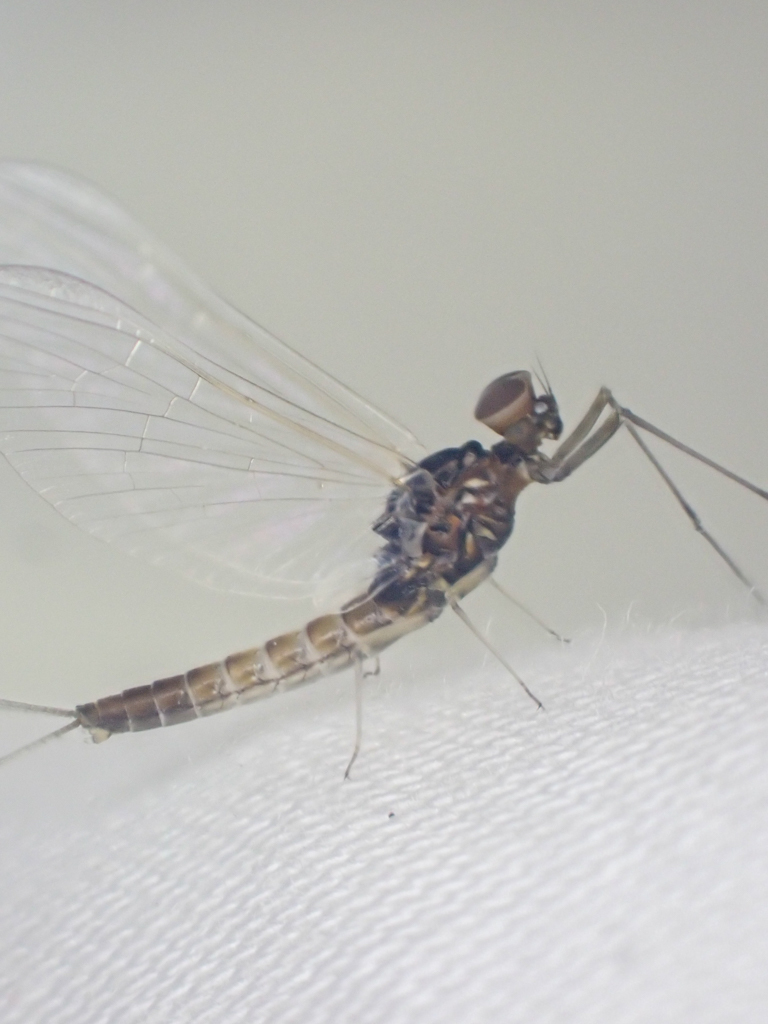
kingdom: Animalia
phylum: Arthropoda
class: Insecta
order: Ephemeroptera
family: Baetidae
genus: Baetis
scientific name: Baetis bicaudatus
